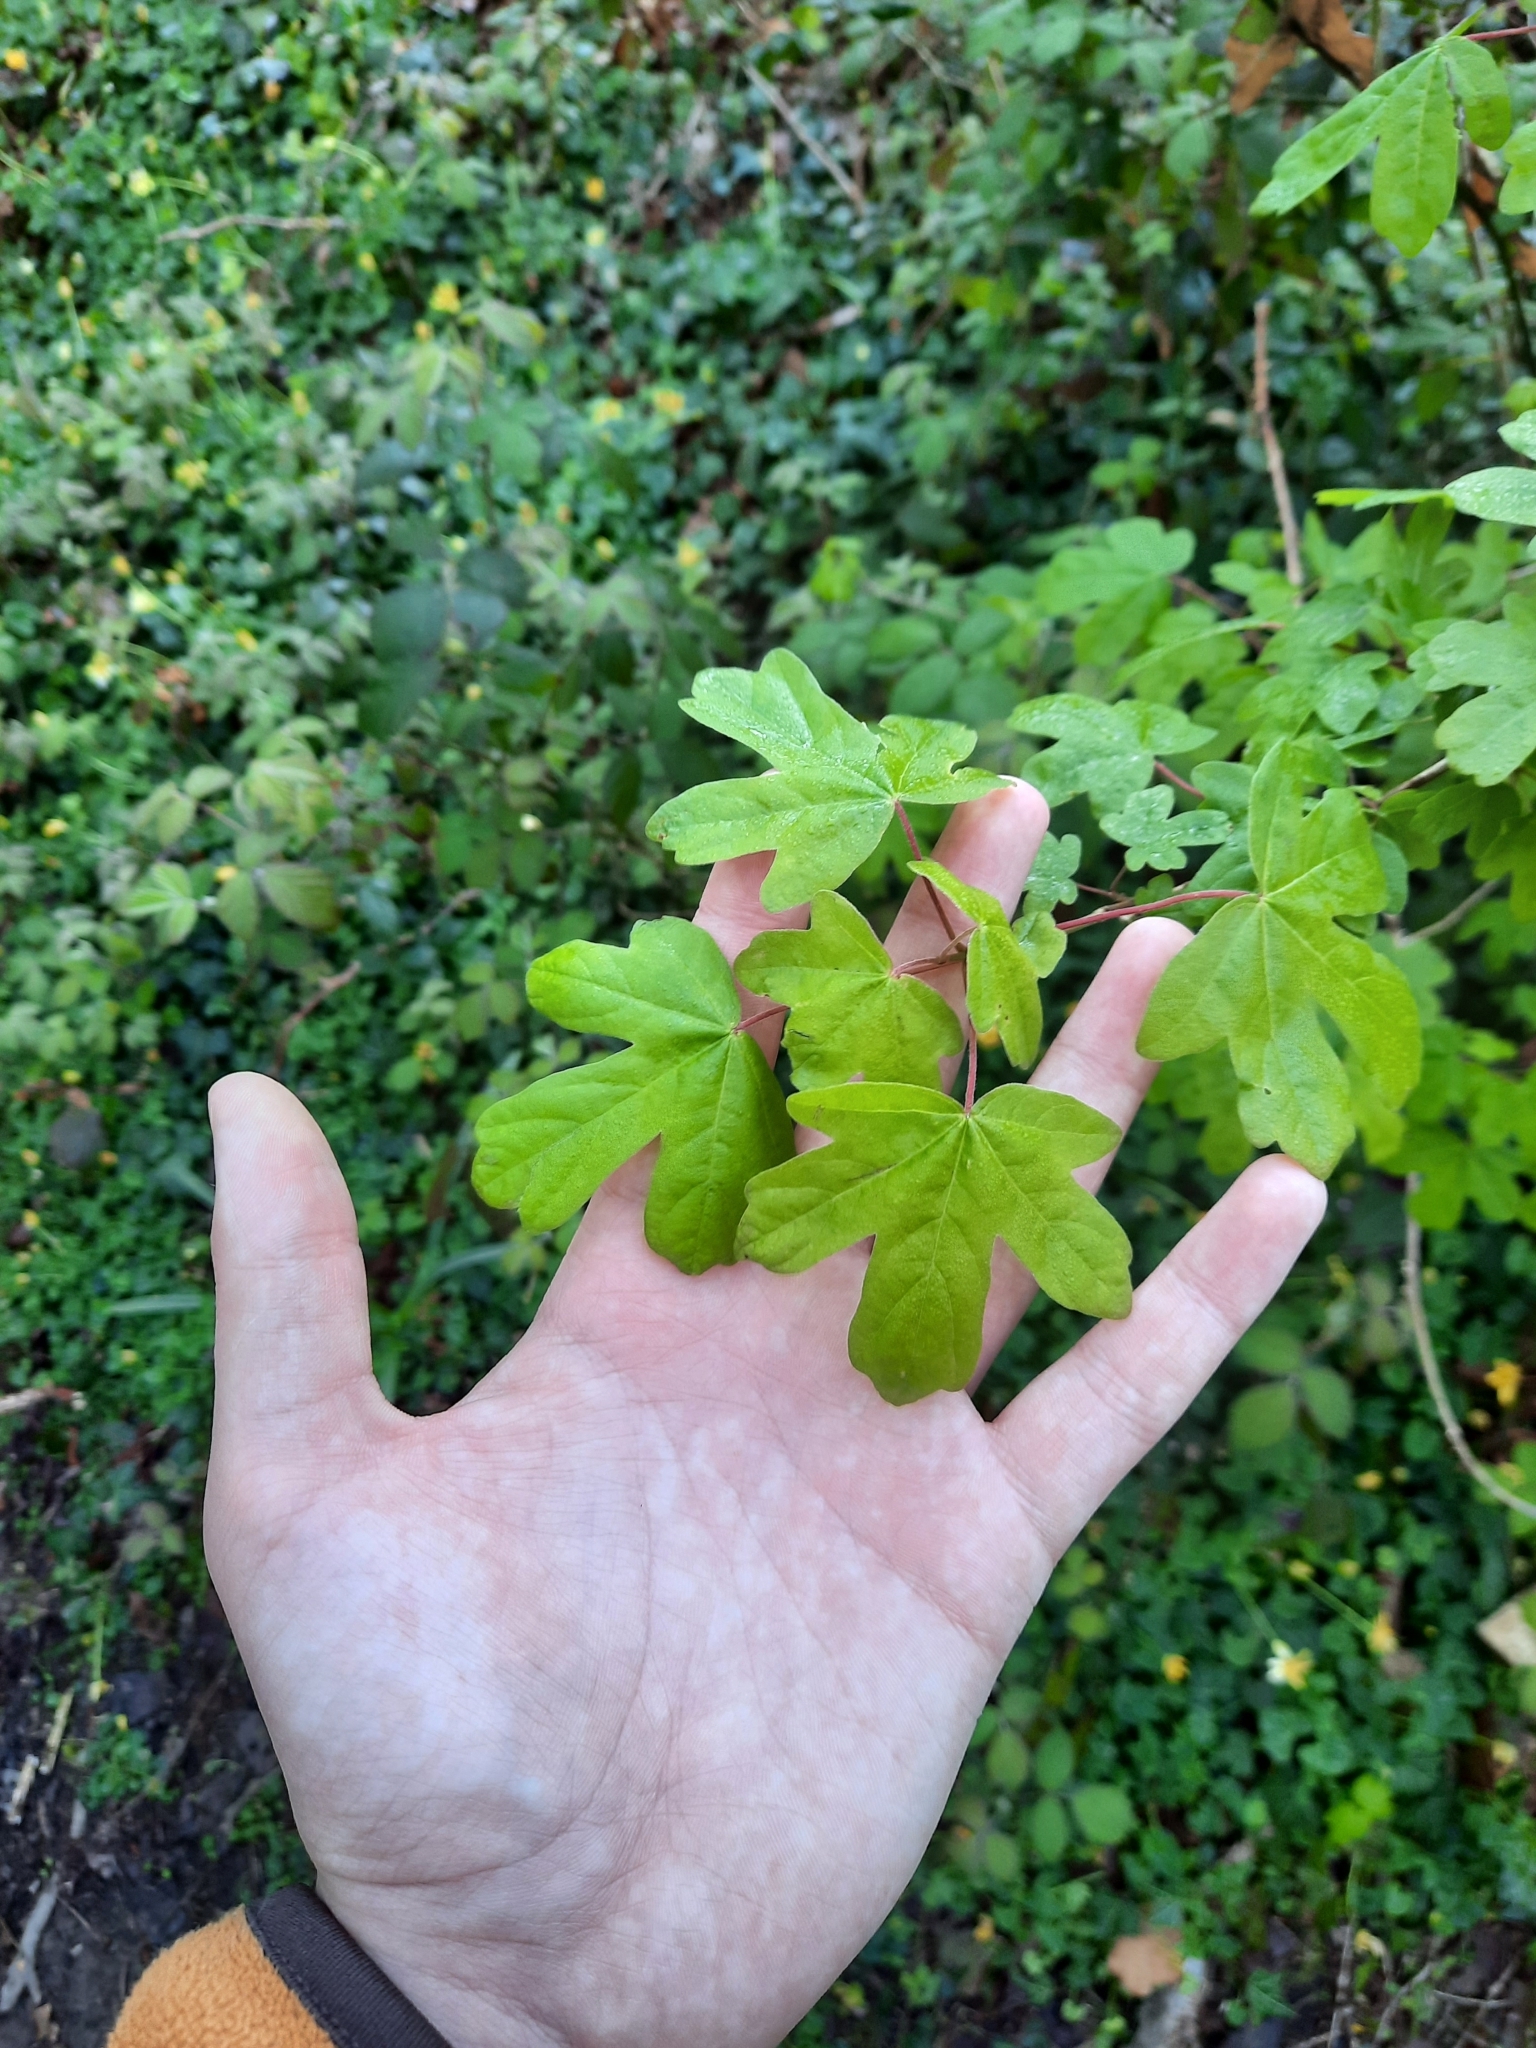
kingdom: Plantae
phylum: Tracheophyta
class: Magnoliopsida
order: Sapindales
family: Sapindaceae
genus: Acer
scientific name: Acer campestre
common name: Field maple
